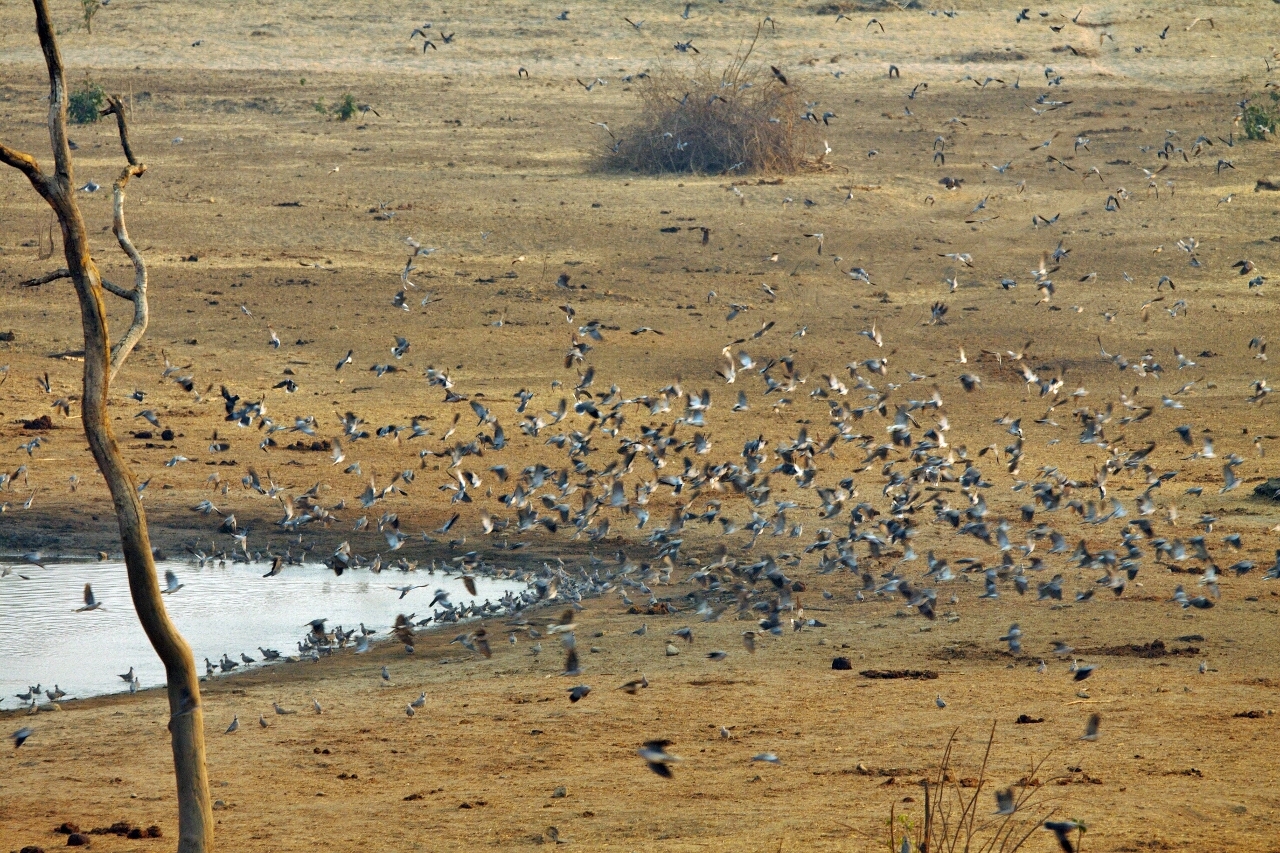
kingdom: Animalia
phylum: Chordata
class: Aves
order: Columbiformes
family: Columbidae
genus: Streptopelia
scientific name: Streptopelia capicola
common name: Ring-necked dove
